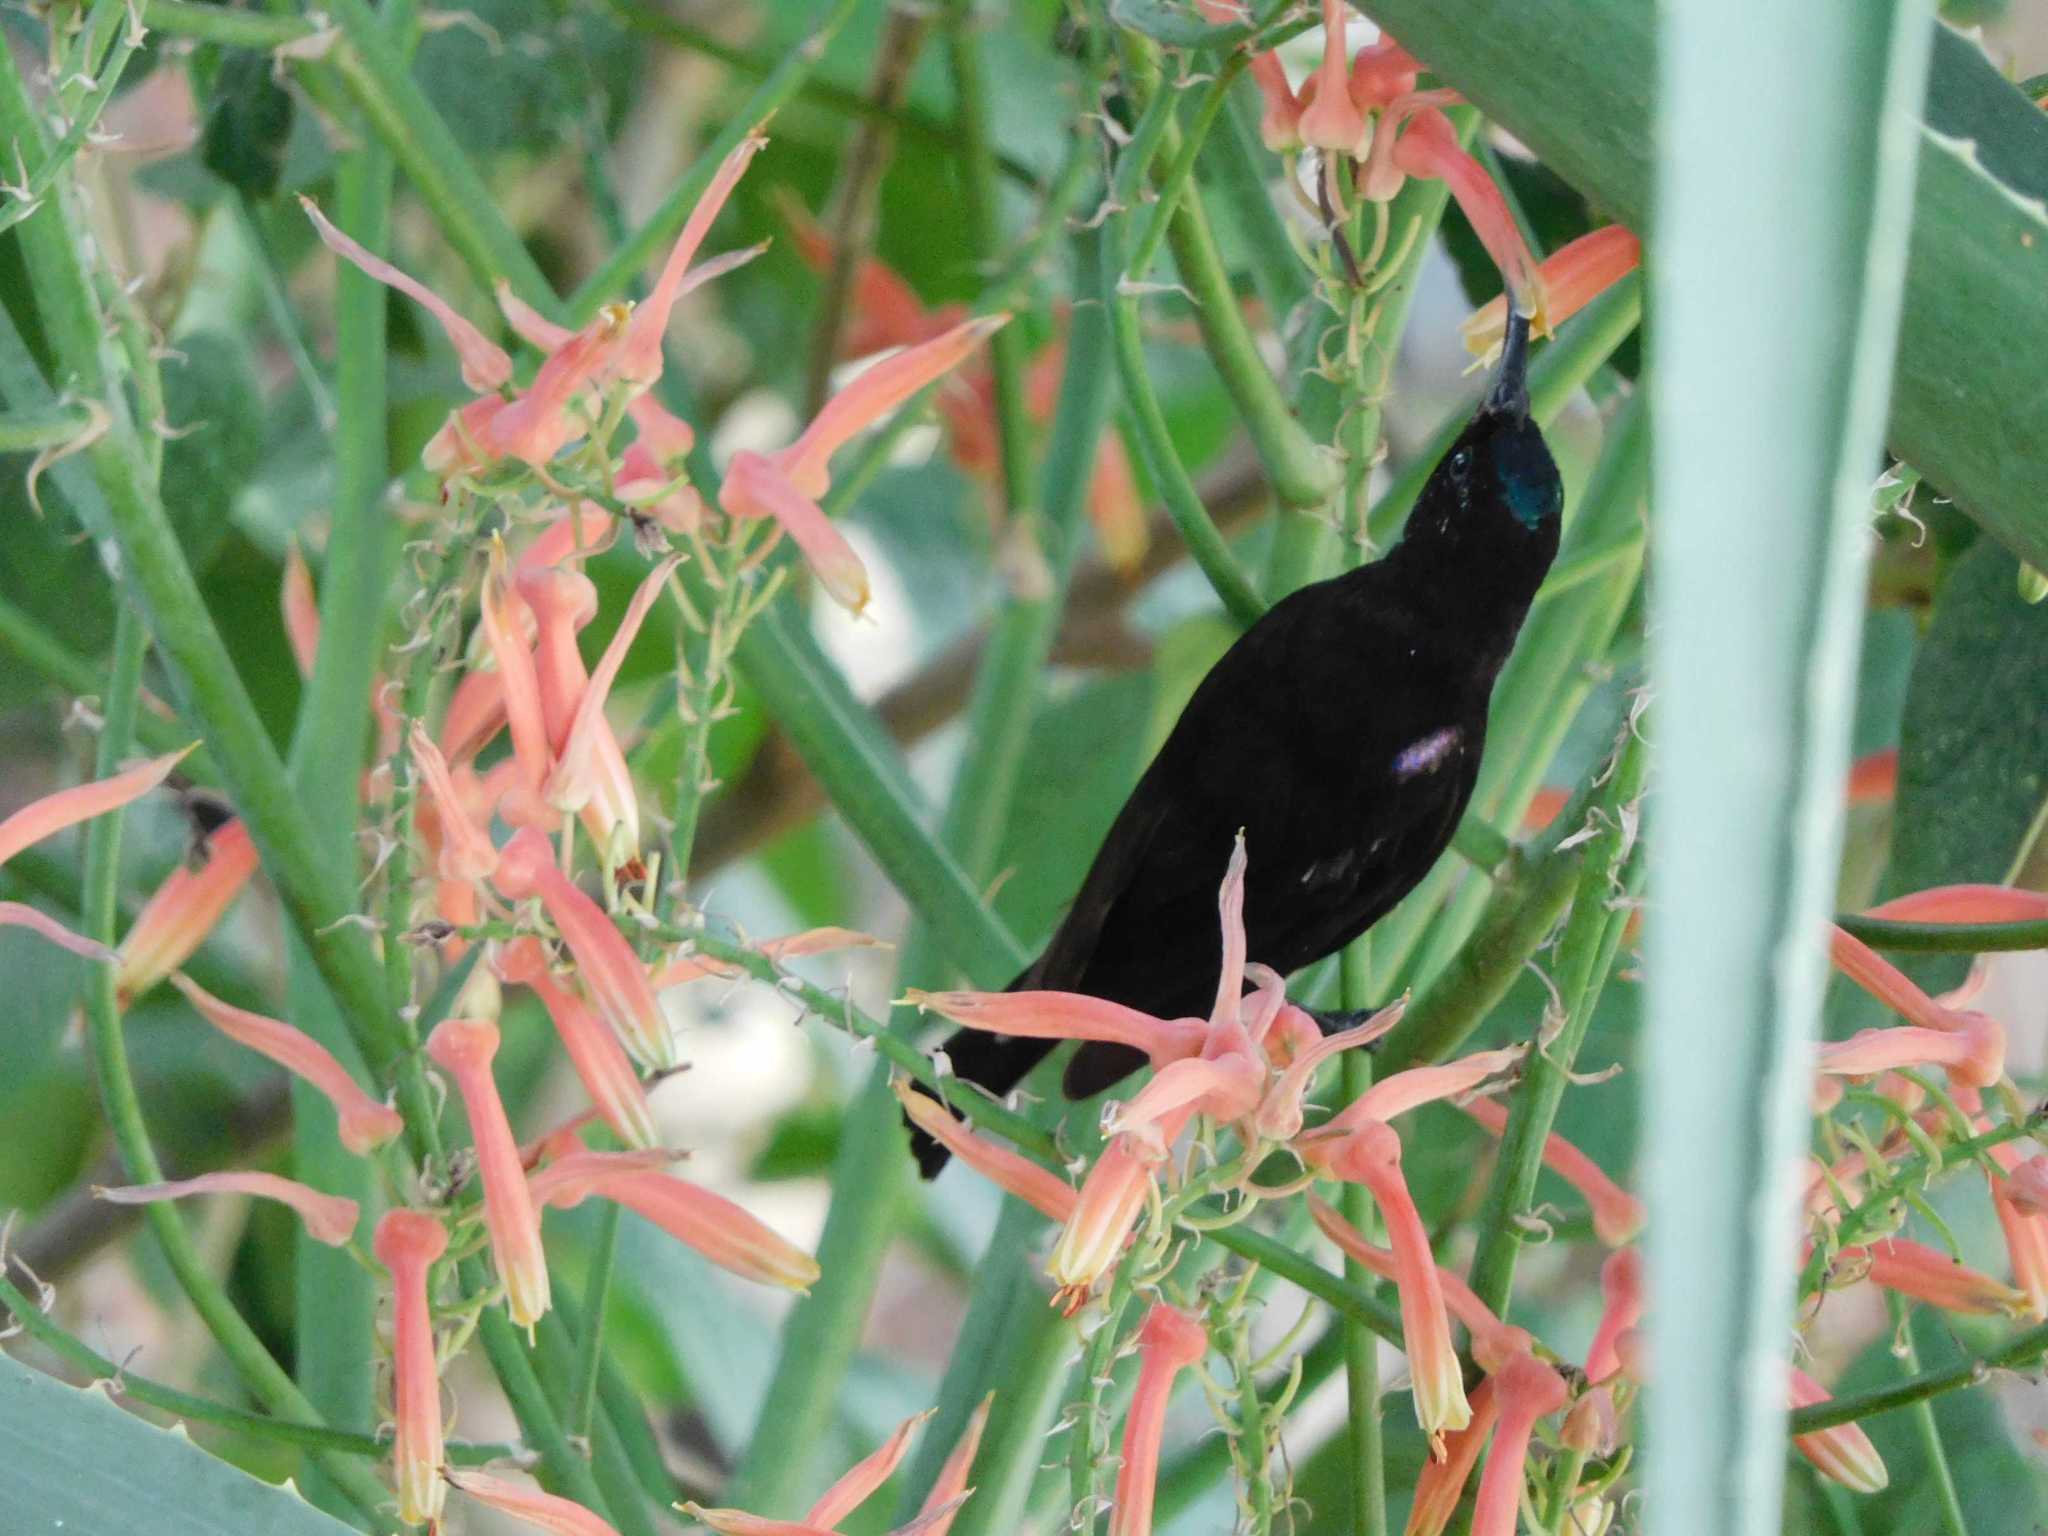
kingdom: Animalia
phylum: Chordata
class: Aves
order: Passeriformes
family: Nectariniidae
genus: Chalcomitra
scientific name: Chalcomitra amethystina
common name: Amethyst sunbird
